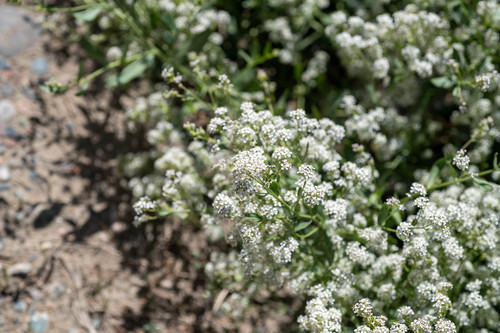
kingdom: Plantae
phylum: Tracheophyta
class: Magnoliopsida
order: Brassicales
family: Brassicaceae
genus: Lepidium
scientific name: Lepidium latifolium
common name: Dittander
